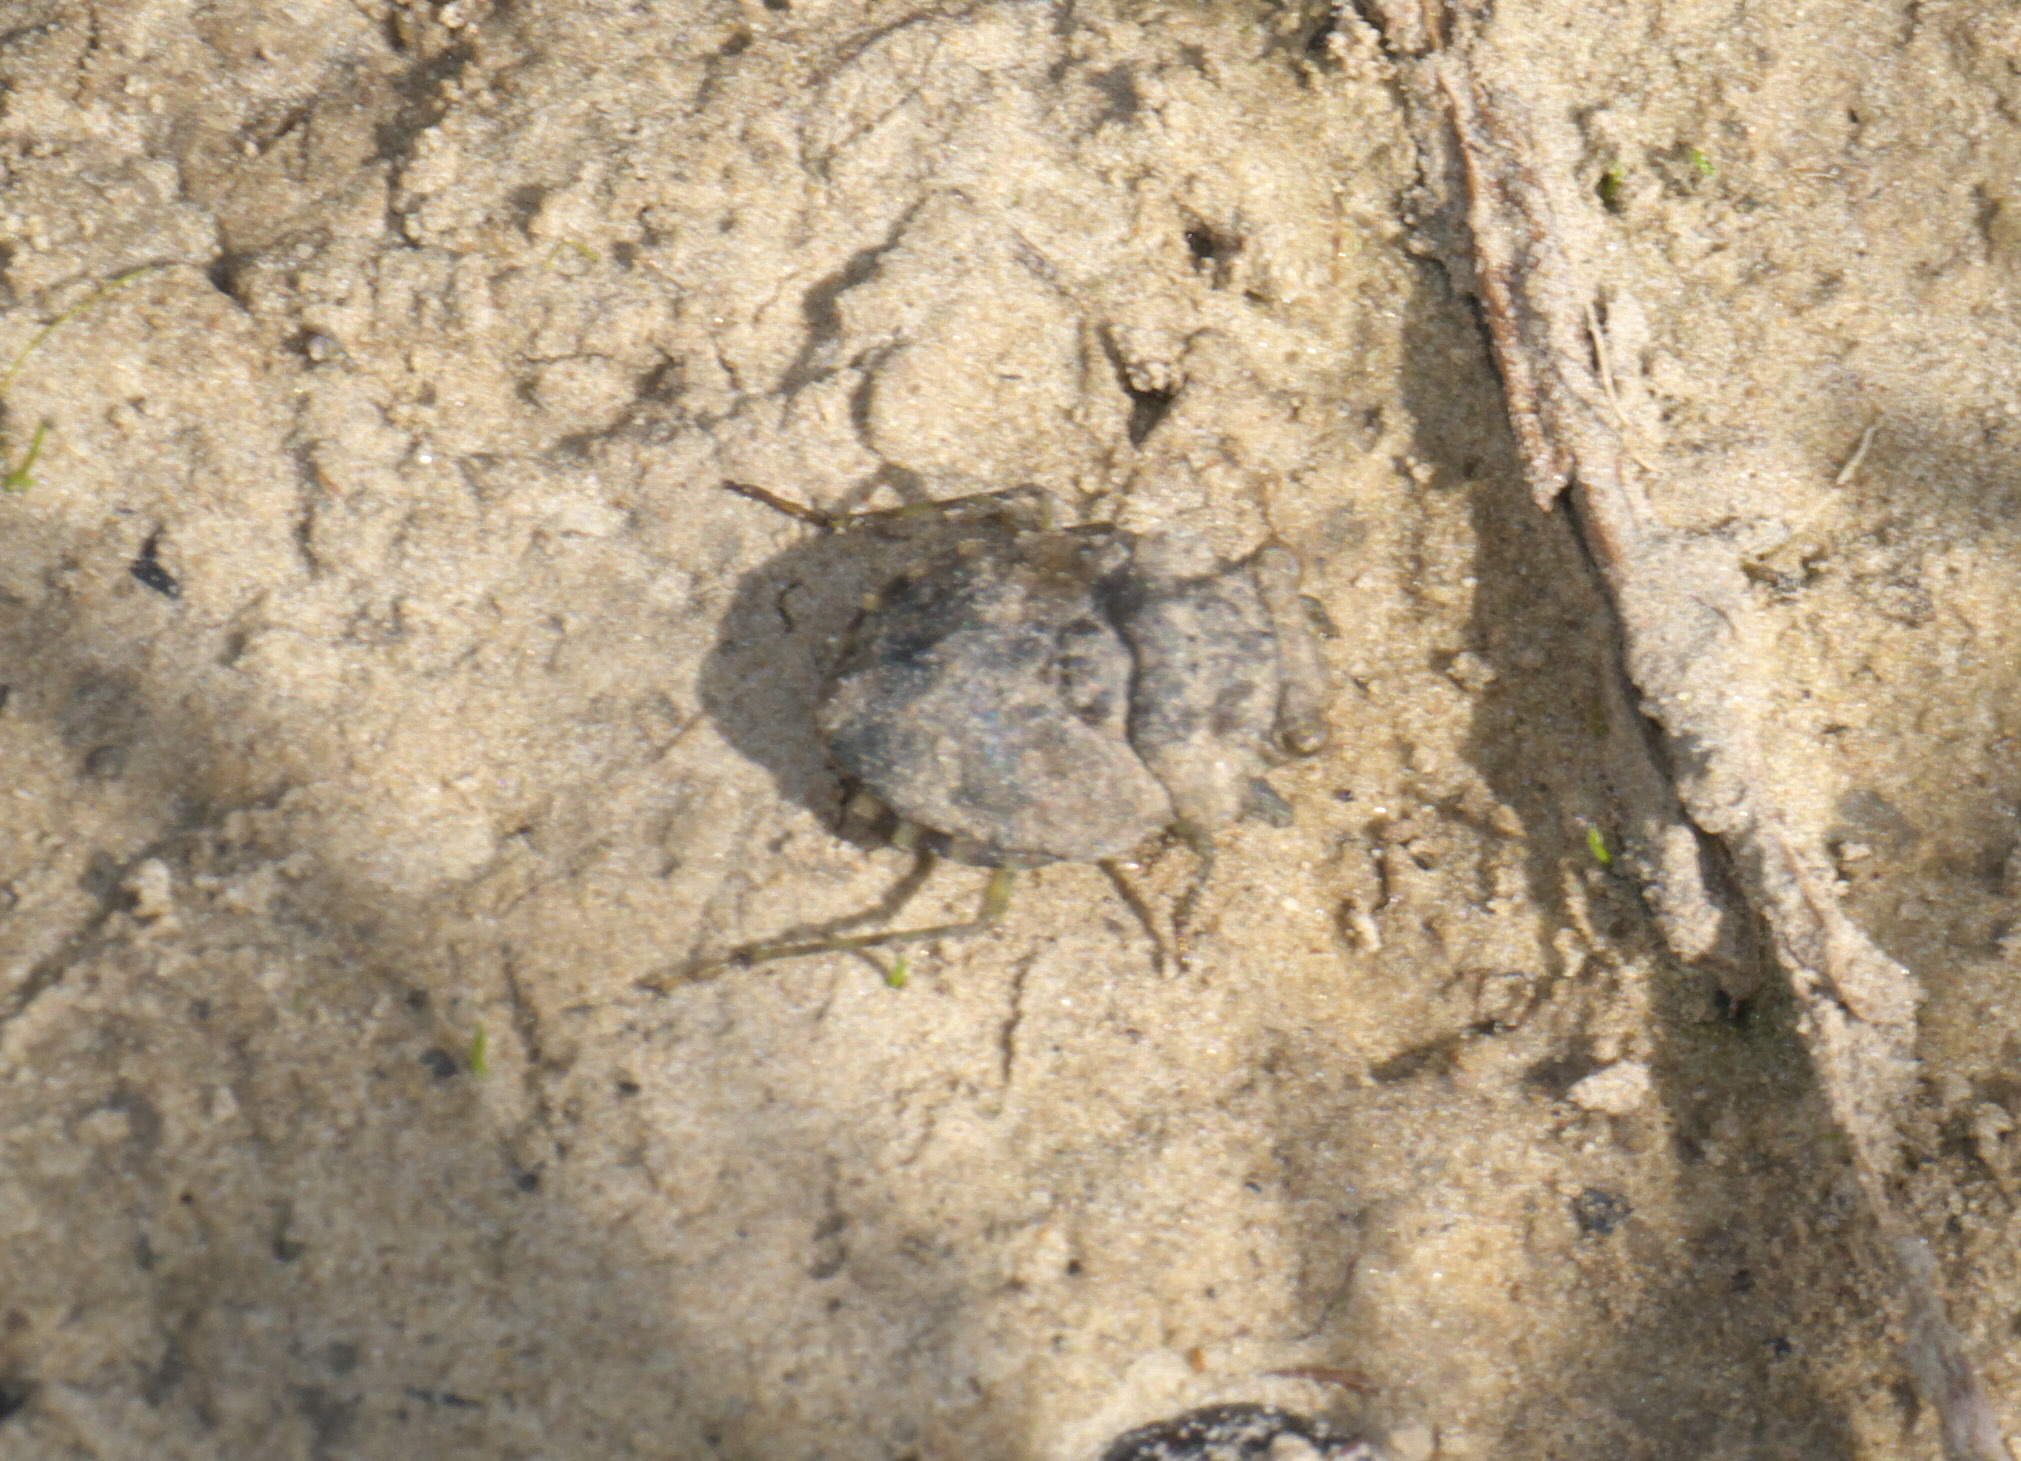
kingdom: Animalia
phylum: Arthropoda
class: Insecta
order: Hemiptera
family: Gelastocoridae
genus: Gelastocoris
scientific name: Gelastocoris oculatus
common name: Toad bug
